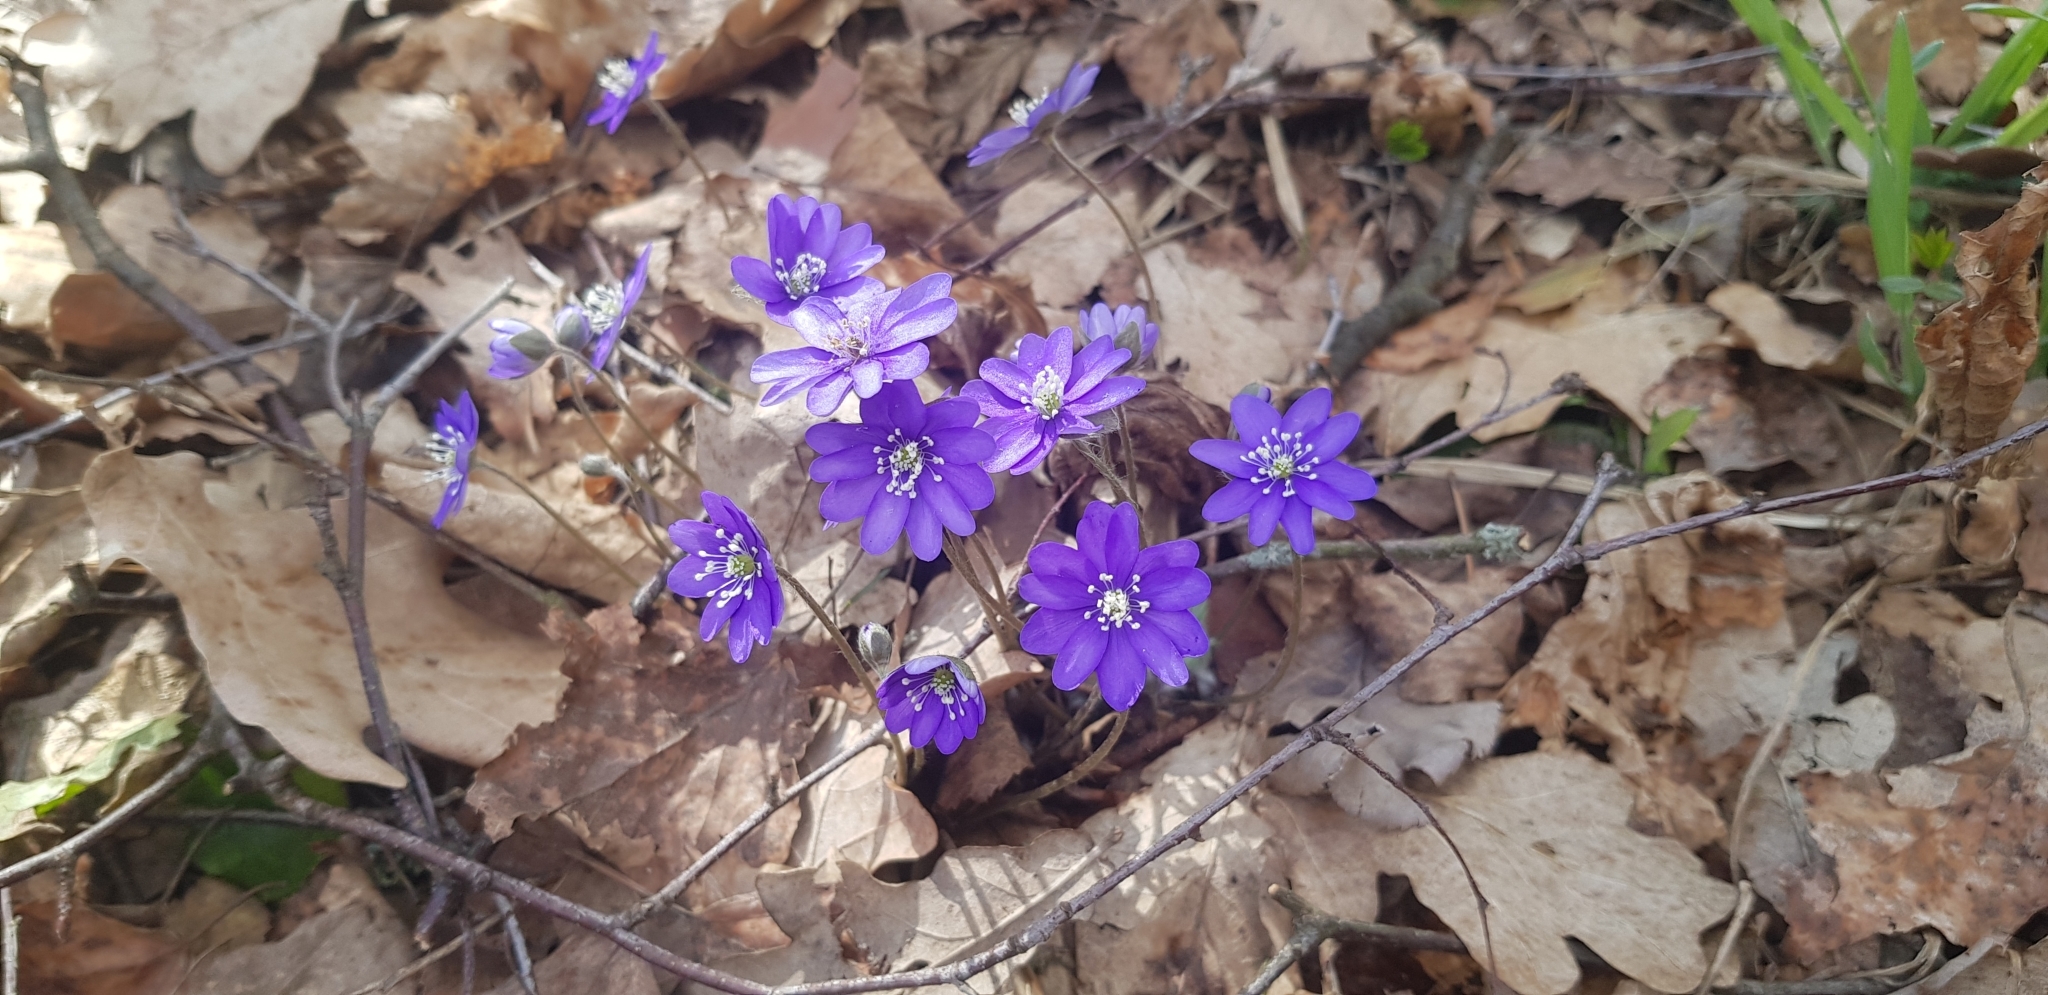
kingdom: Plantae
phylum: Tracheophyta
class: Magnoliopsida
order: Ranunculales
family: Ranunculaceae
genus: Hepatica
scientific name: Hepatica nobilis
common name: Liverleaf
